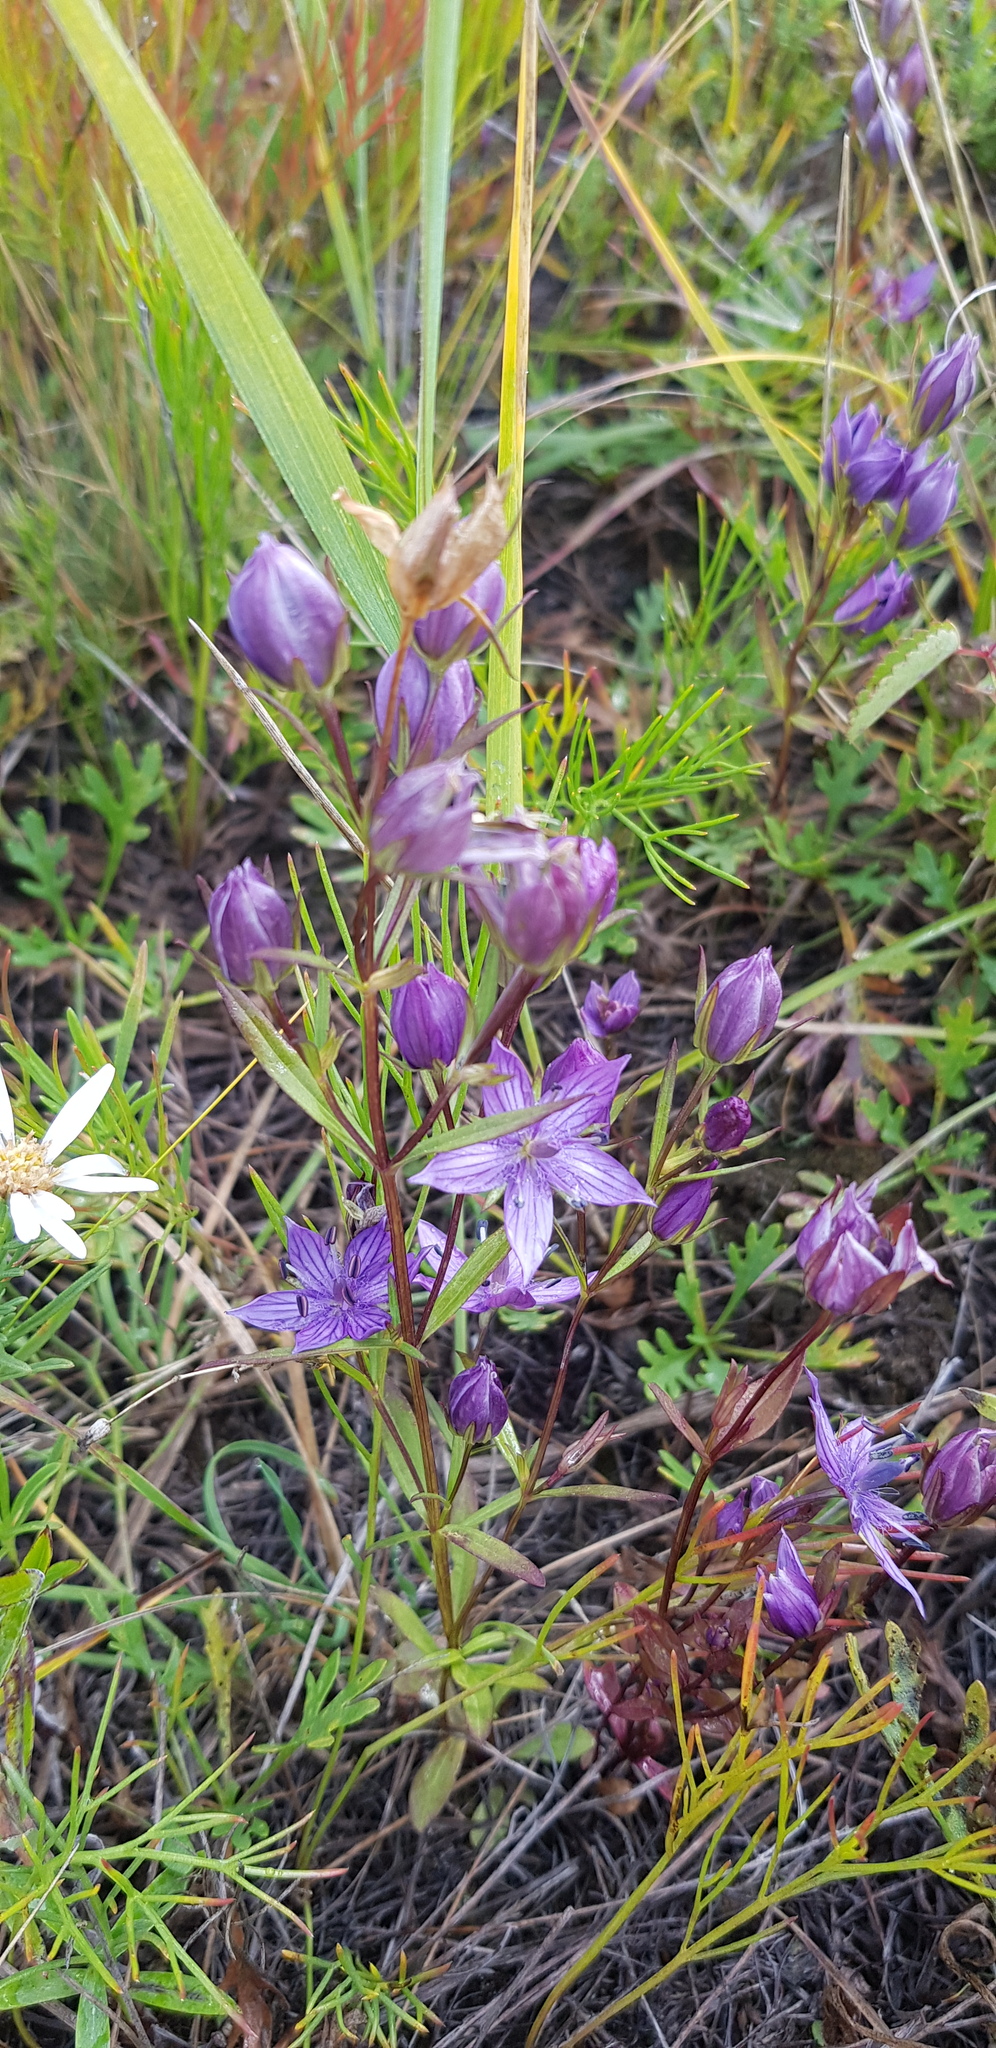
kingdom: Plantae
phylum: Tracheophyta
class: Magnoliopsida
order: Gentianales
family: Gentianaceae
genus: Lomatogonium
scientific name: Lomatogonium rotatum
